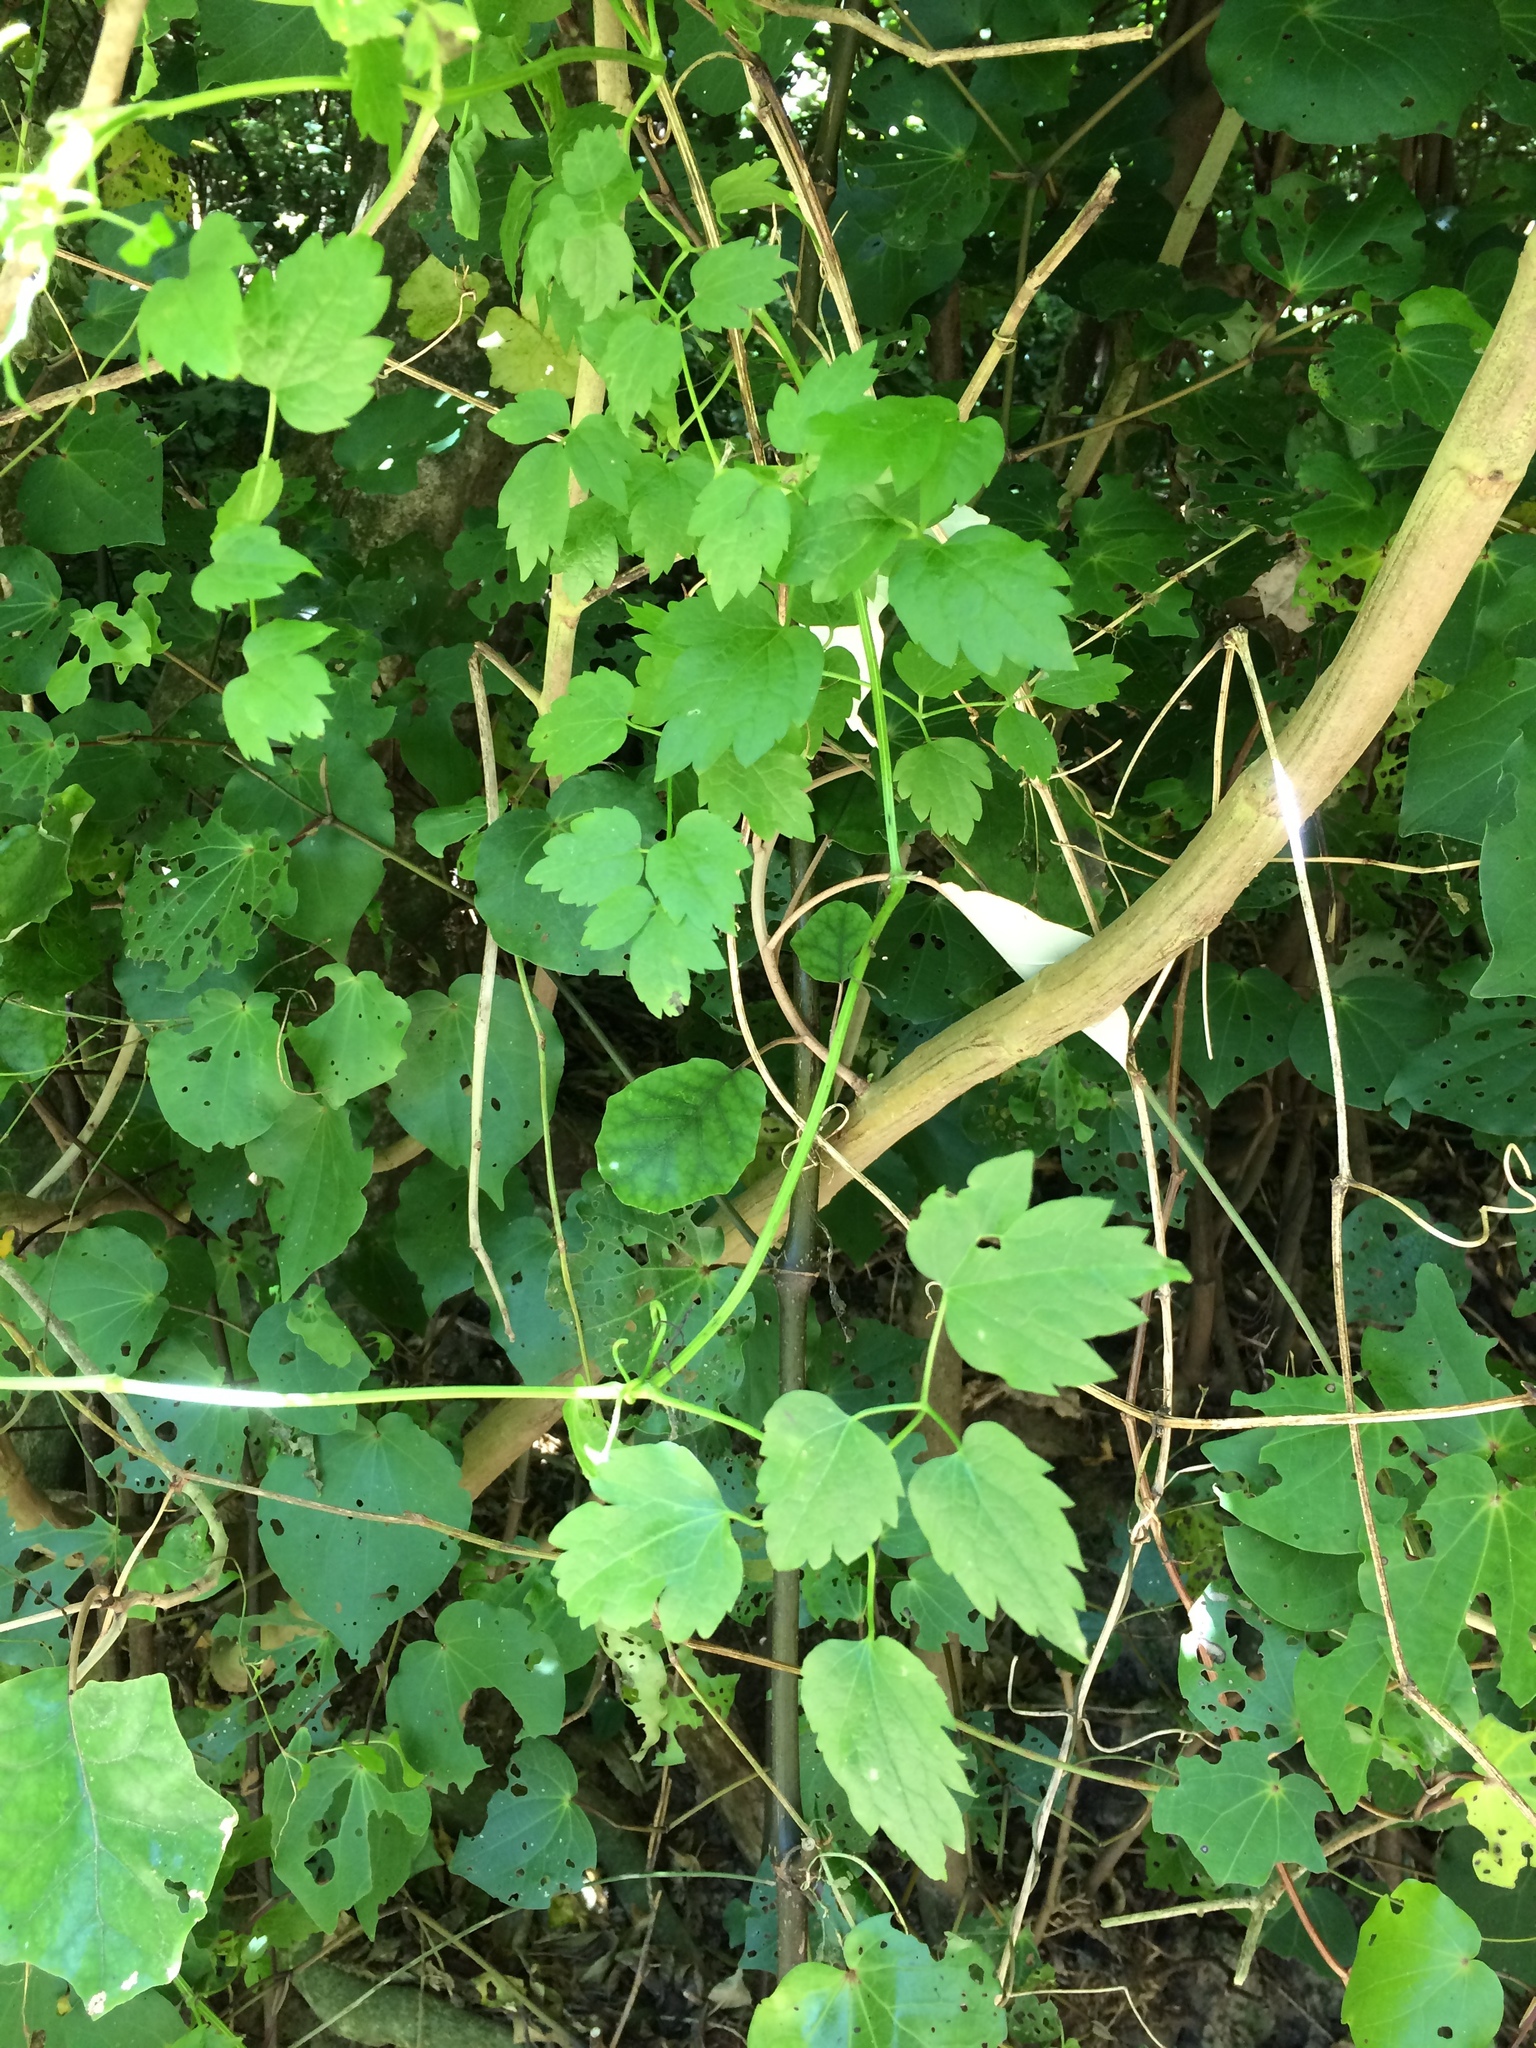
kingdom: Plantae
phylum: Tracheophyta
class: Magnoliopsida
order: Ranunculales
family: Ranunculaceae
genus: Clematis
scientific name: Clematis vitalba
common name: Evergreen clematis
